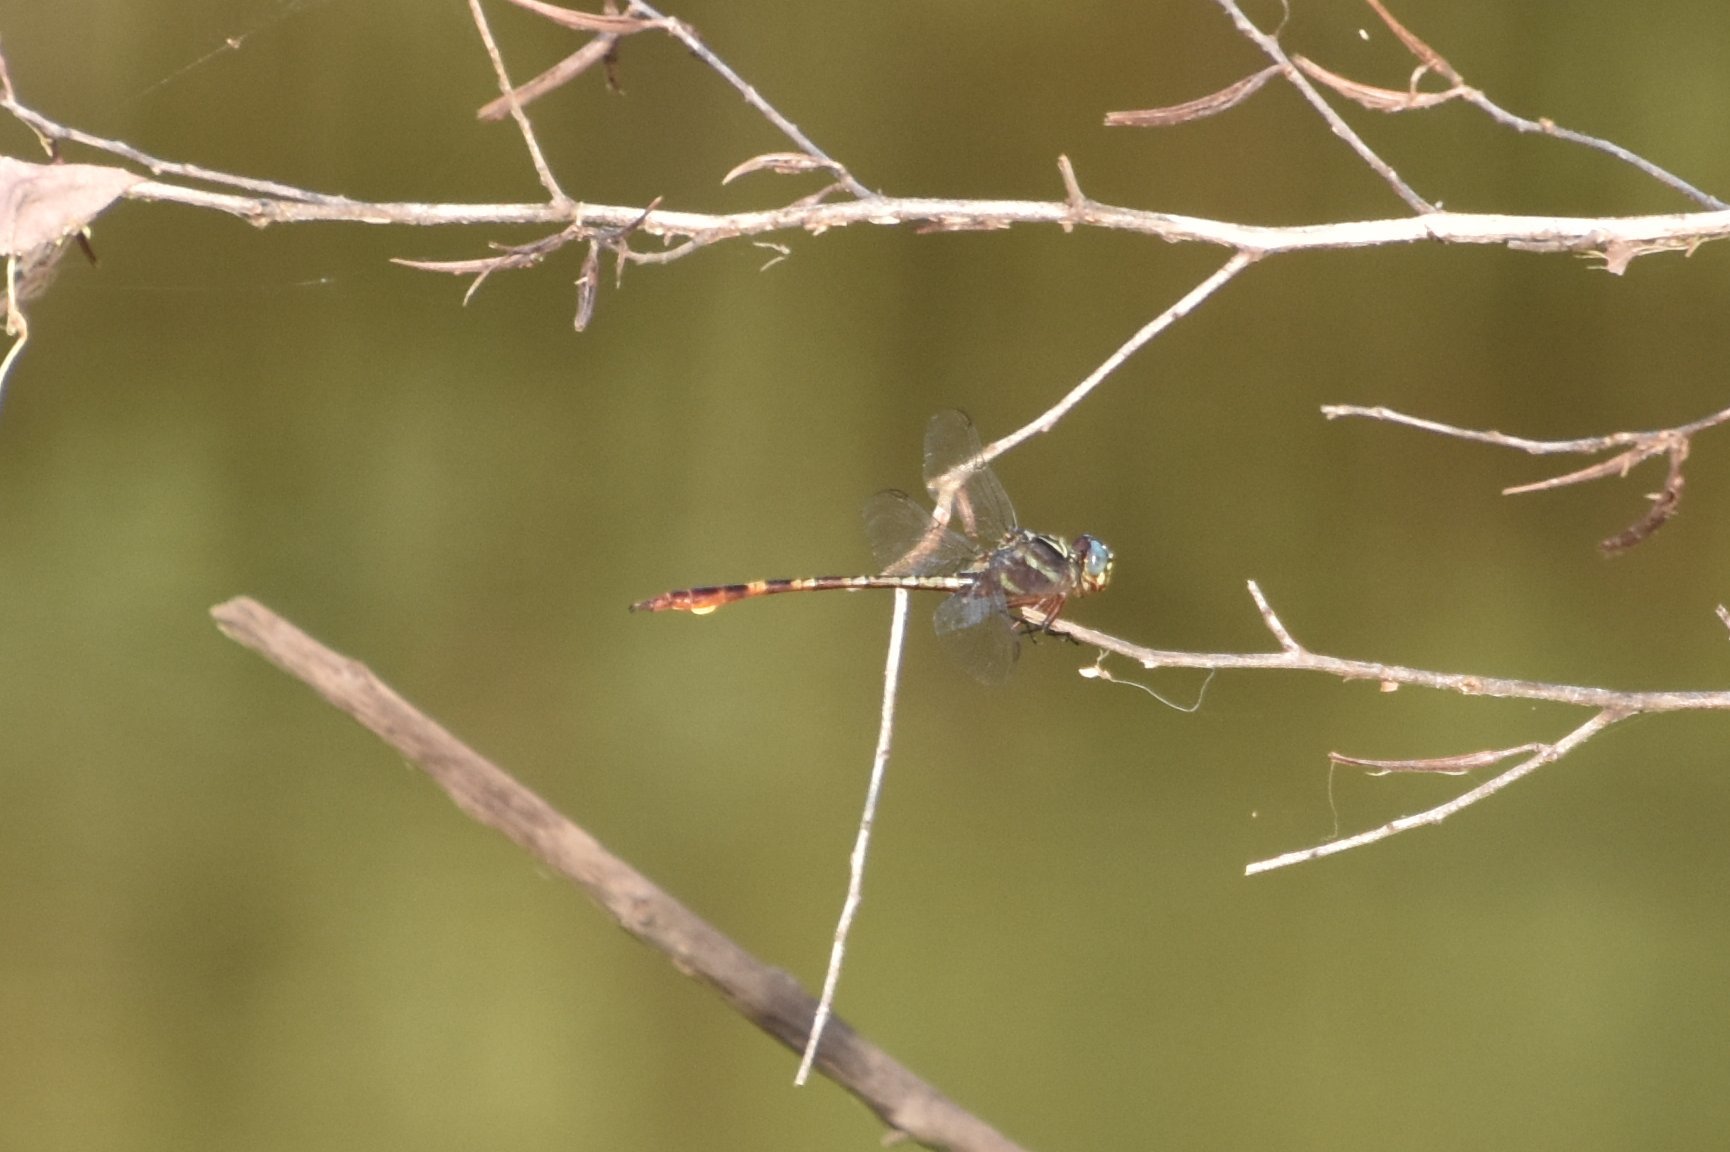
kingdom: Animalia
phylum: Arthropoda
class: Insecta
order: Odonata
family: Gomphidae
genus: Aphylla
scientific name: Aphylla williamsoni
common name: Two-striped forceptail
